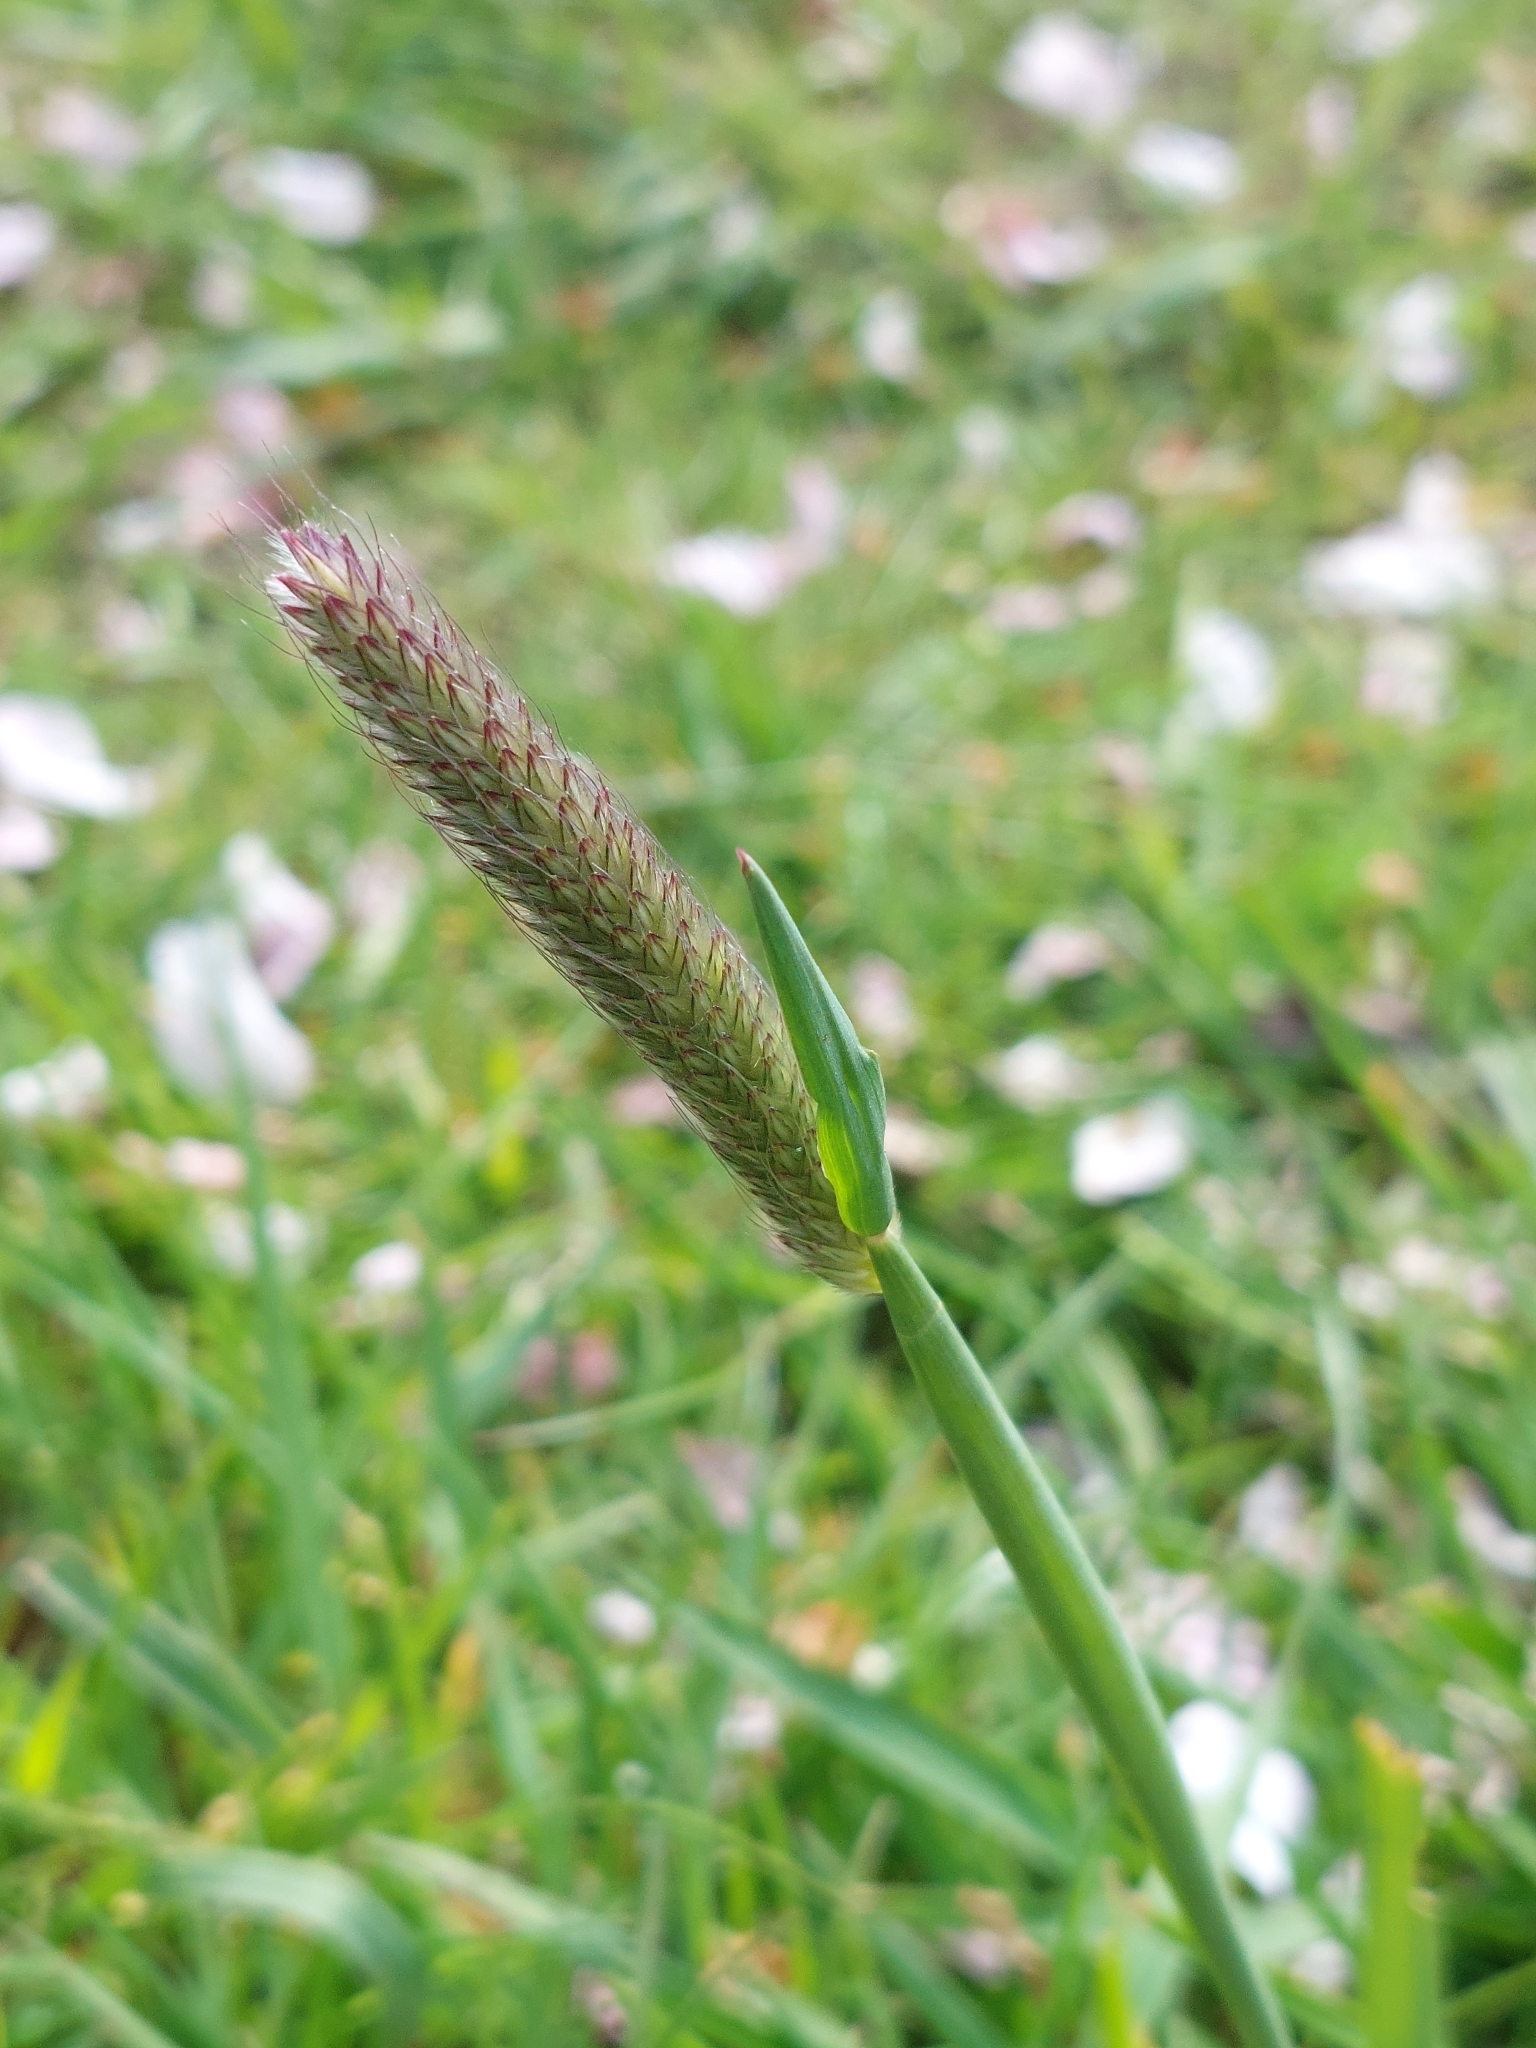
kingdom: Plantae
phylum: Tracheophyta
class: Liliopsida
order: Poales
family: Poaceae
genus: Alopecurus
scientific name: Alopecurus pratensis
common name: Meadow foxtail
